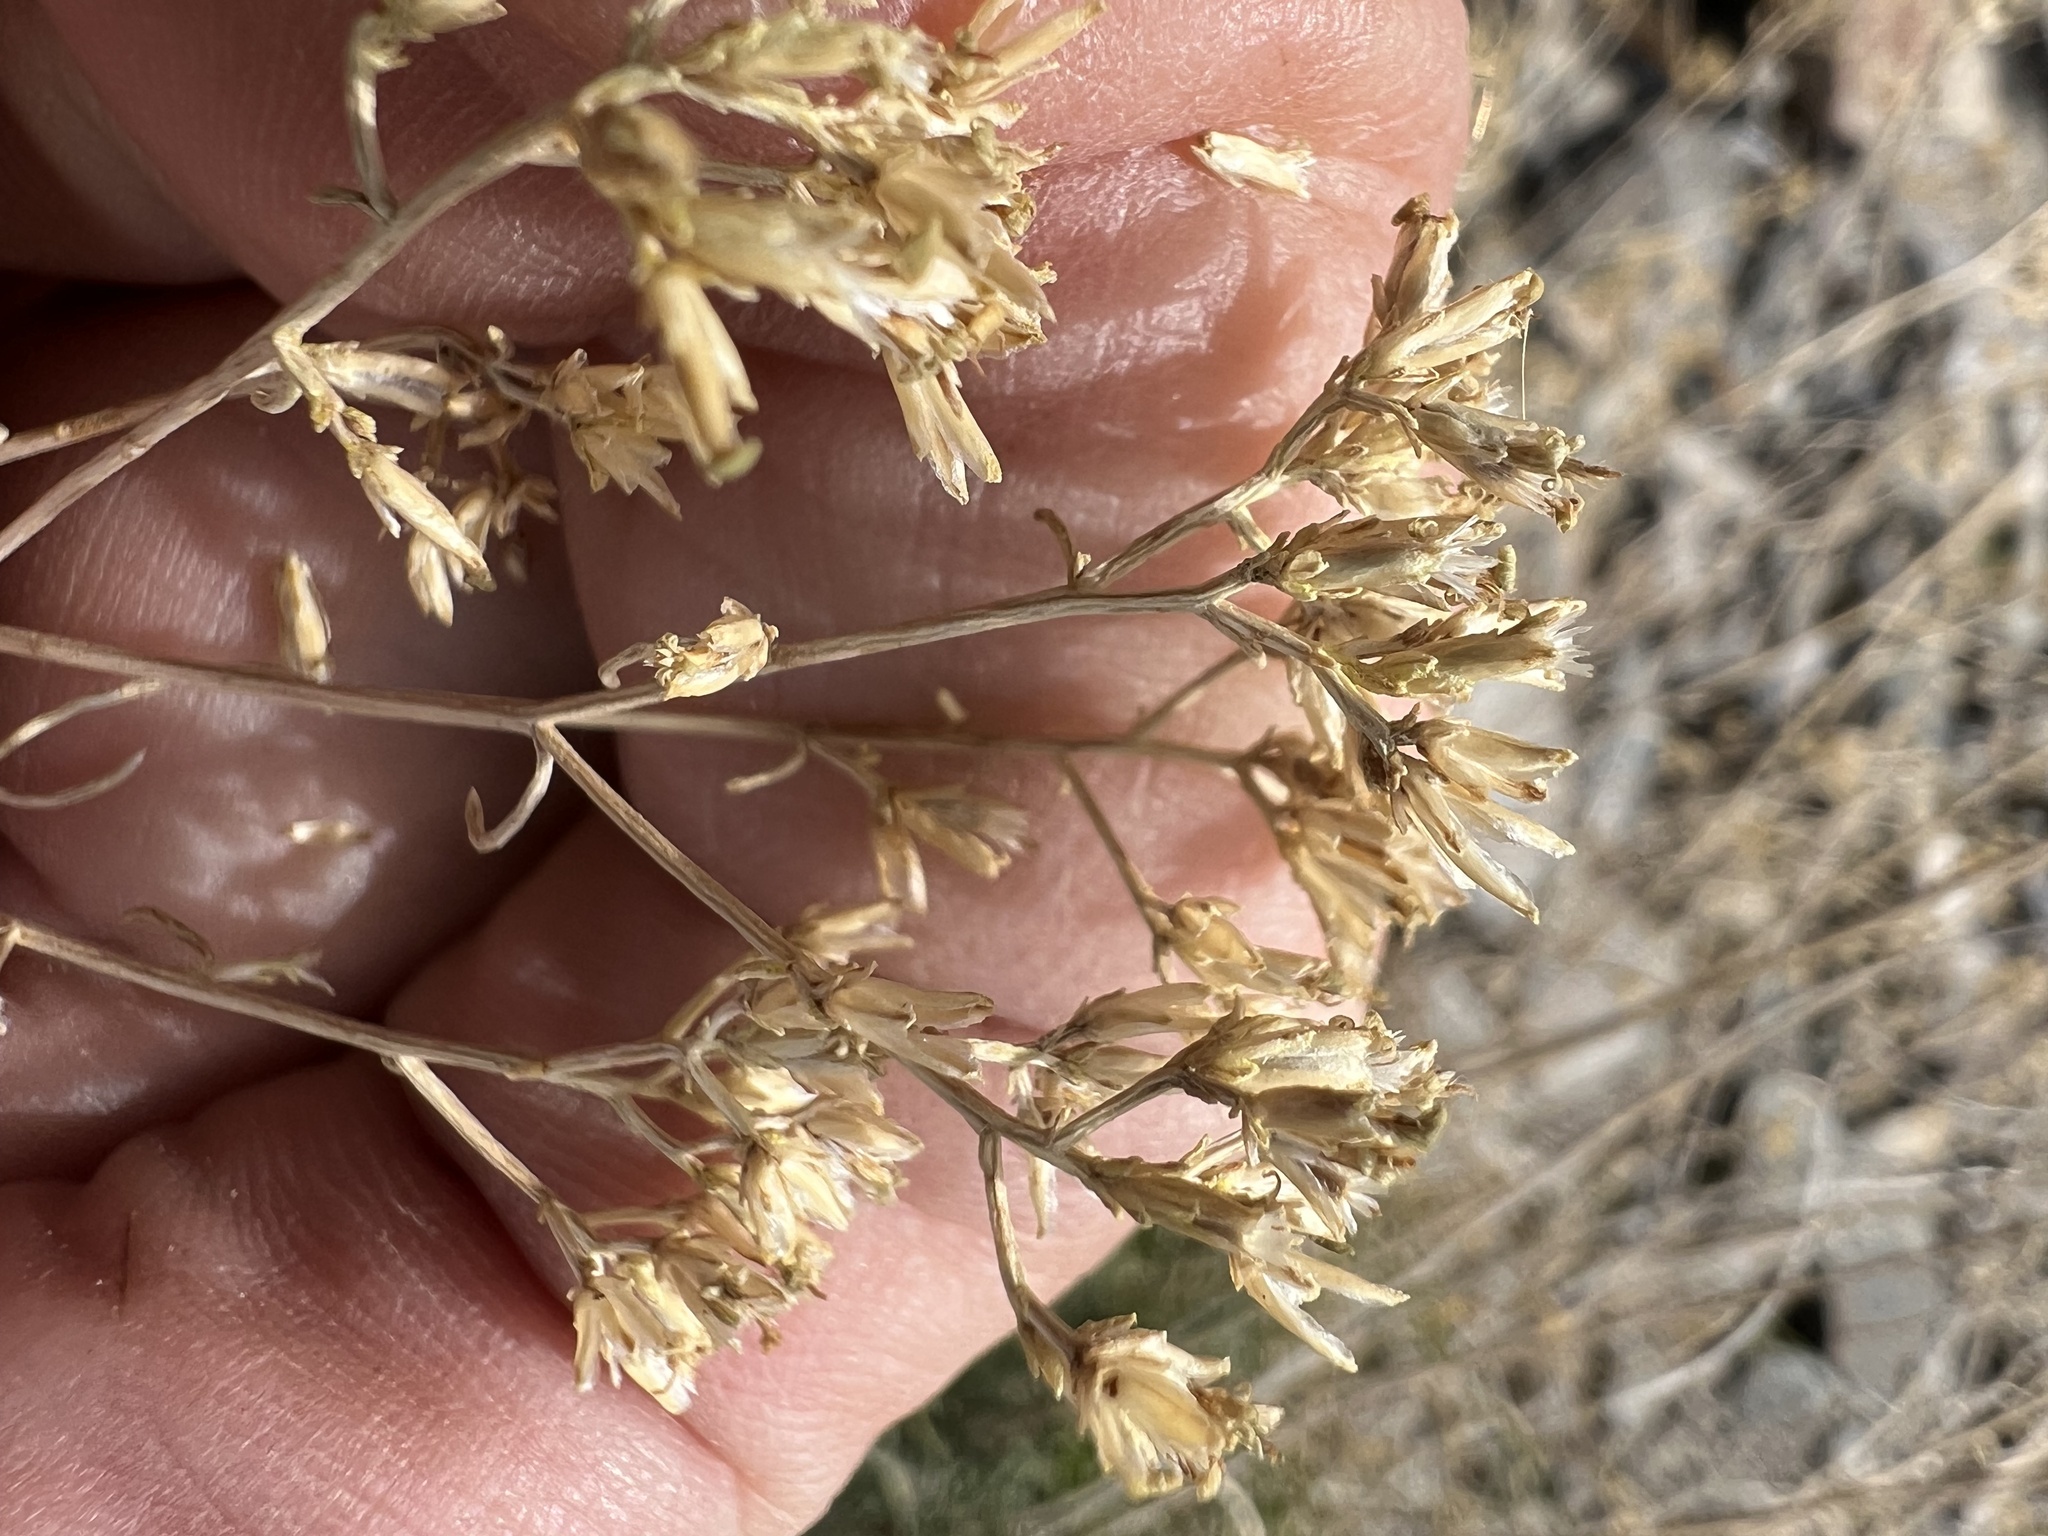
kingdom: Plantae
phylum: Tracheophyta
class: Magnoliopsida
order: Asterales
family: Asteraceae
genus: Gutierrezia
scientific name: Gutierrezia microcephala
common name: Thread snakeweed
